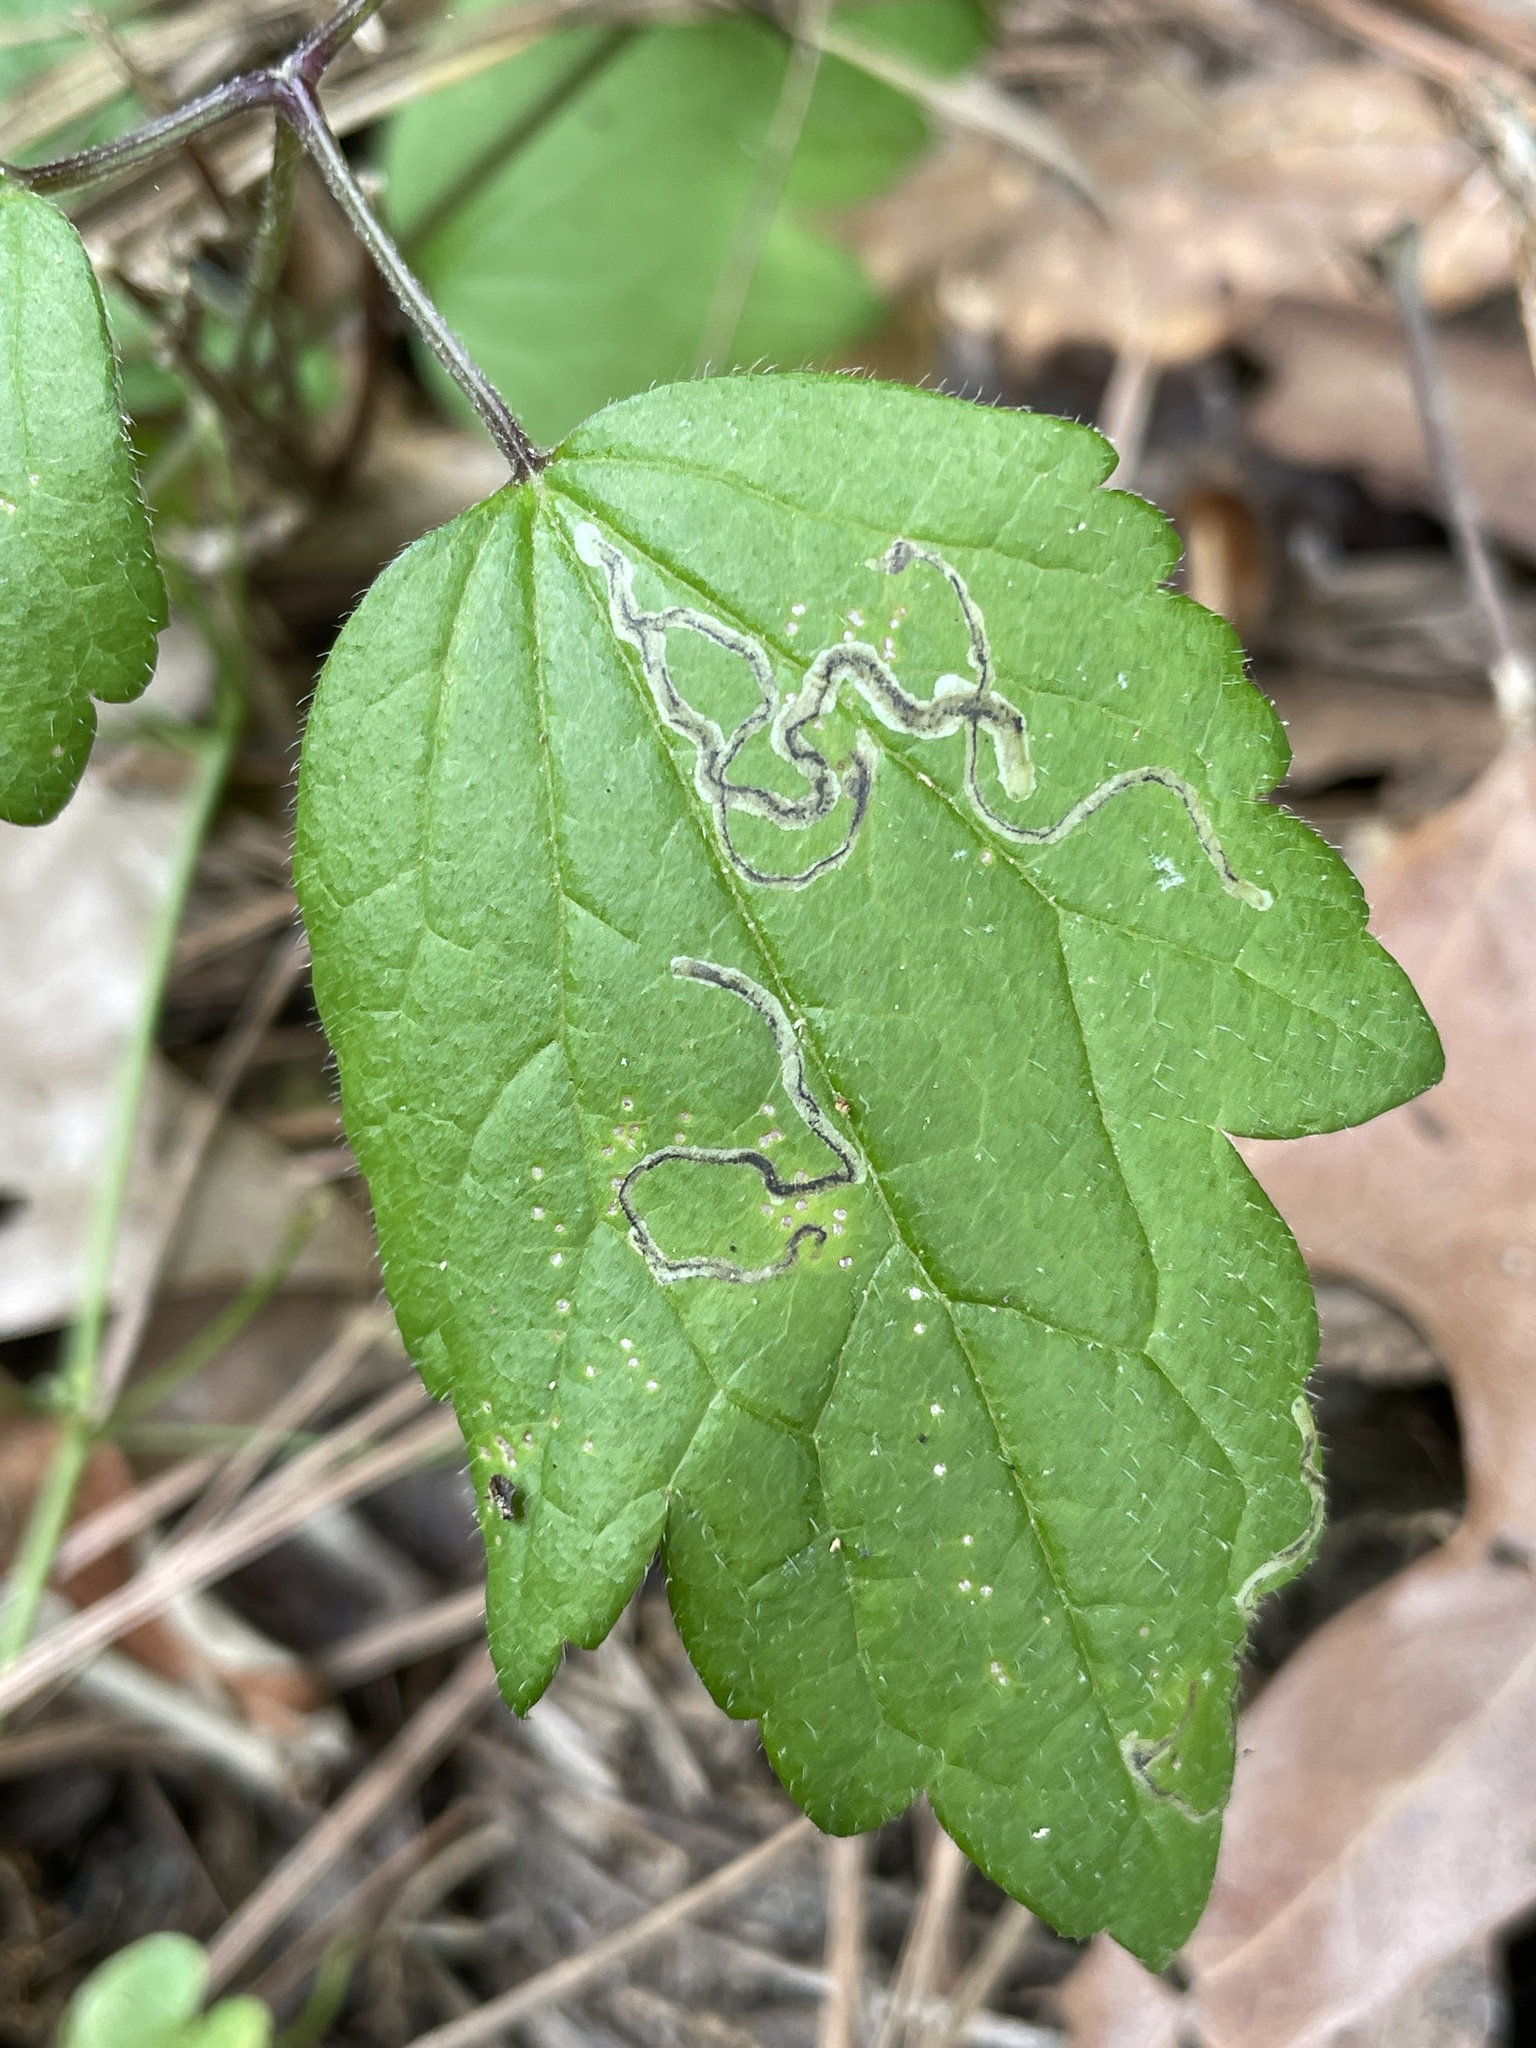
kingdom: Animalia
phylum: Arthropoda
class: Insecta
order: Diptera
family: Agromyzidae
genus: Phytomyza
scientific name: Phytomyza loewii
